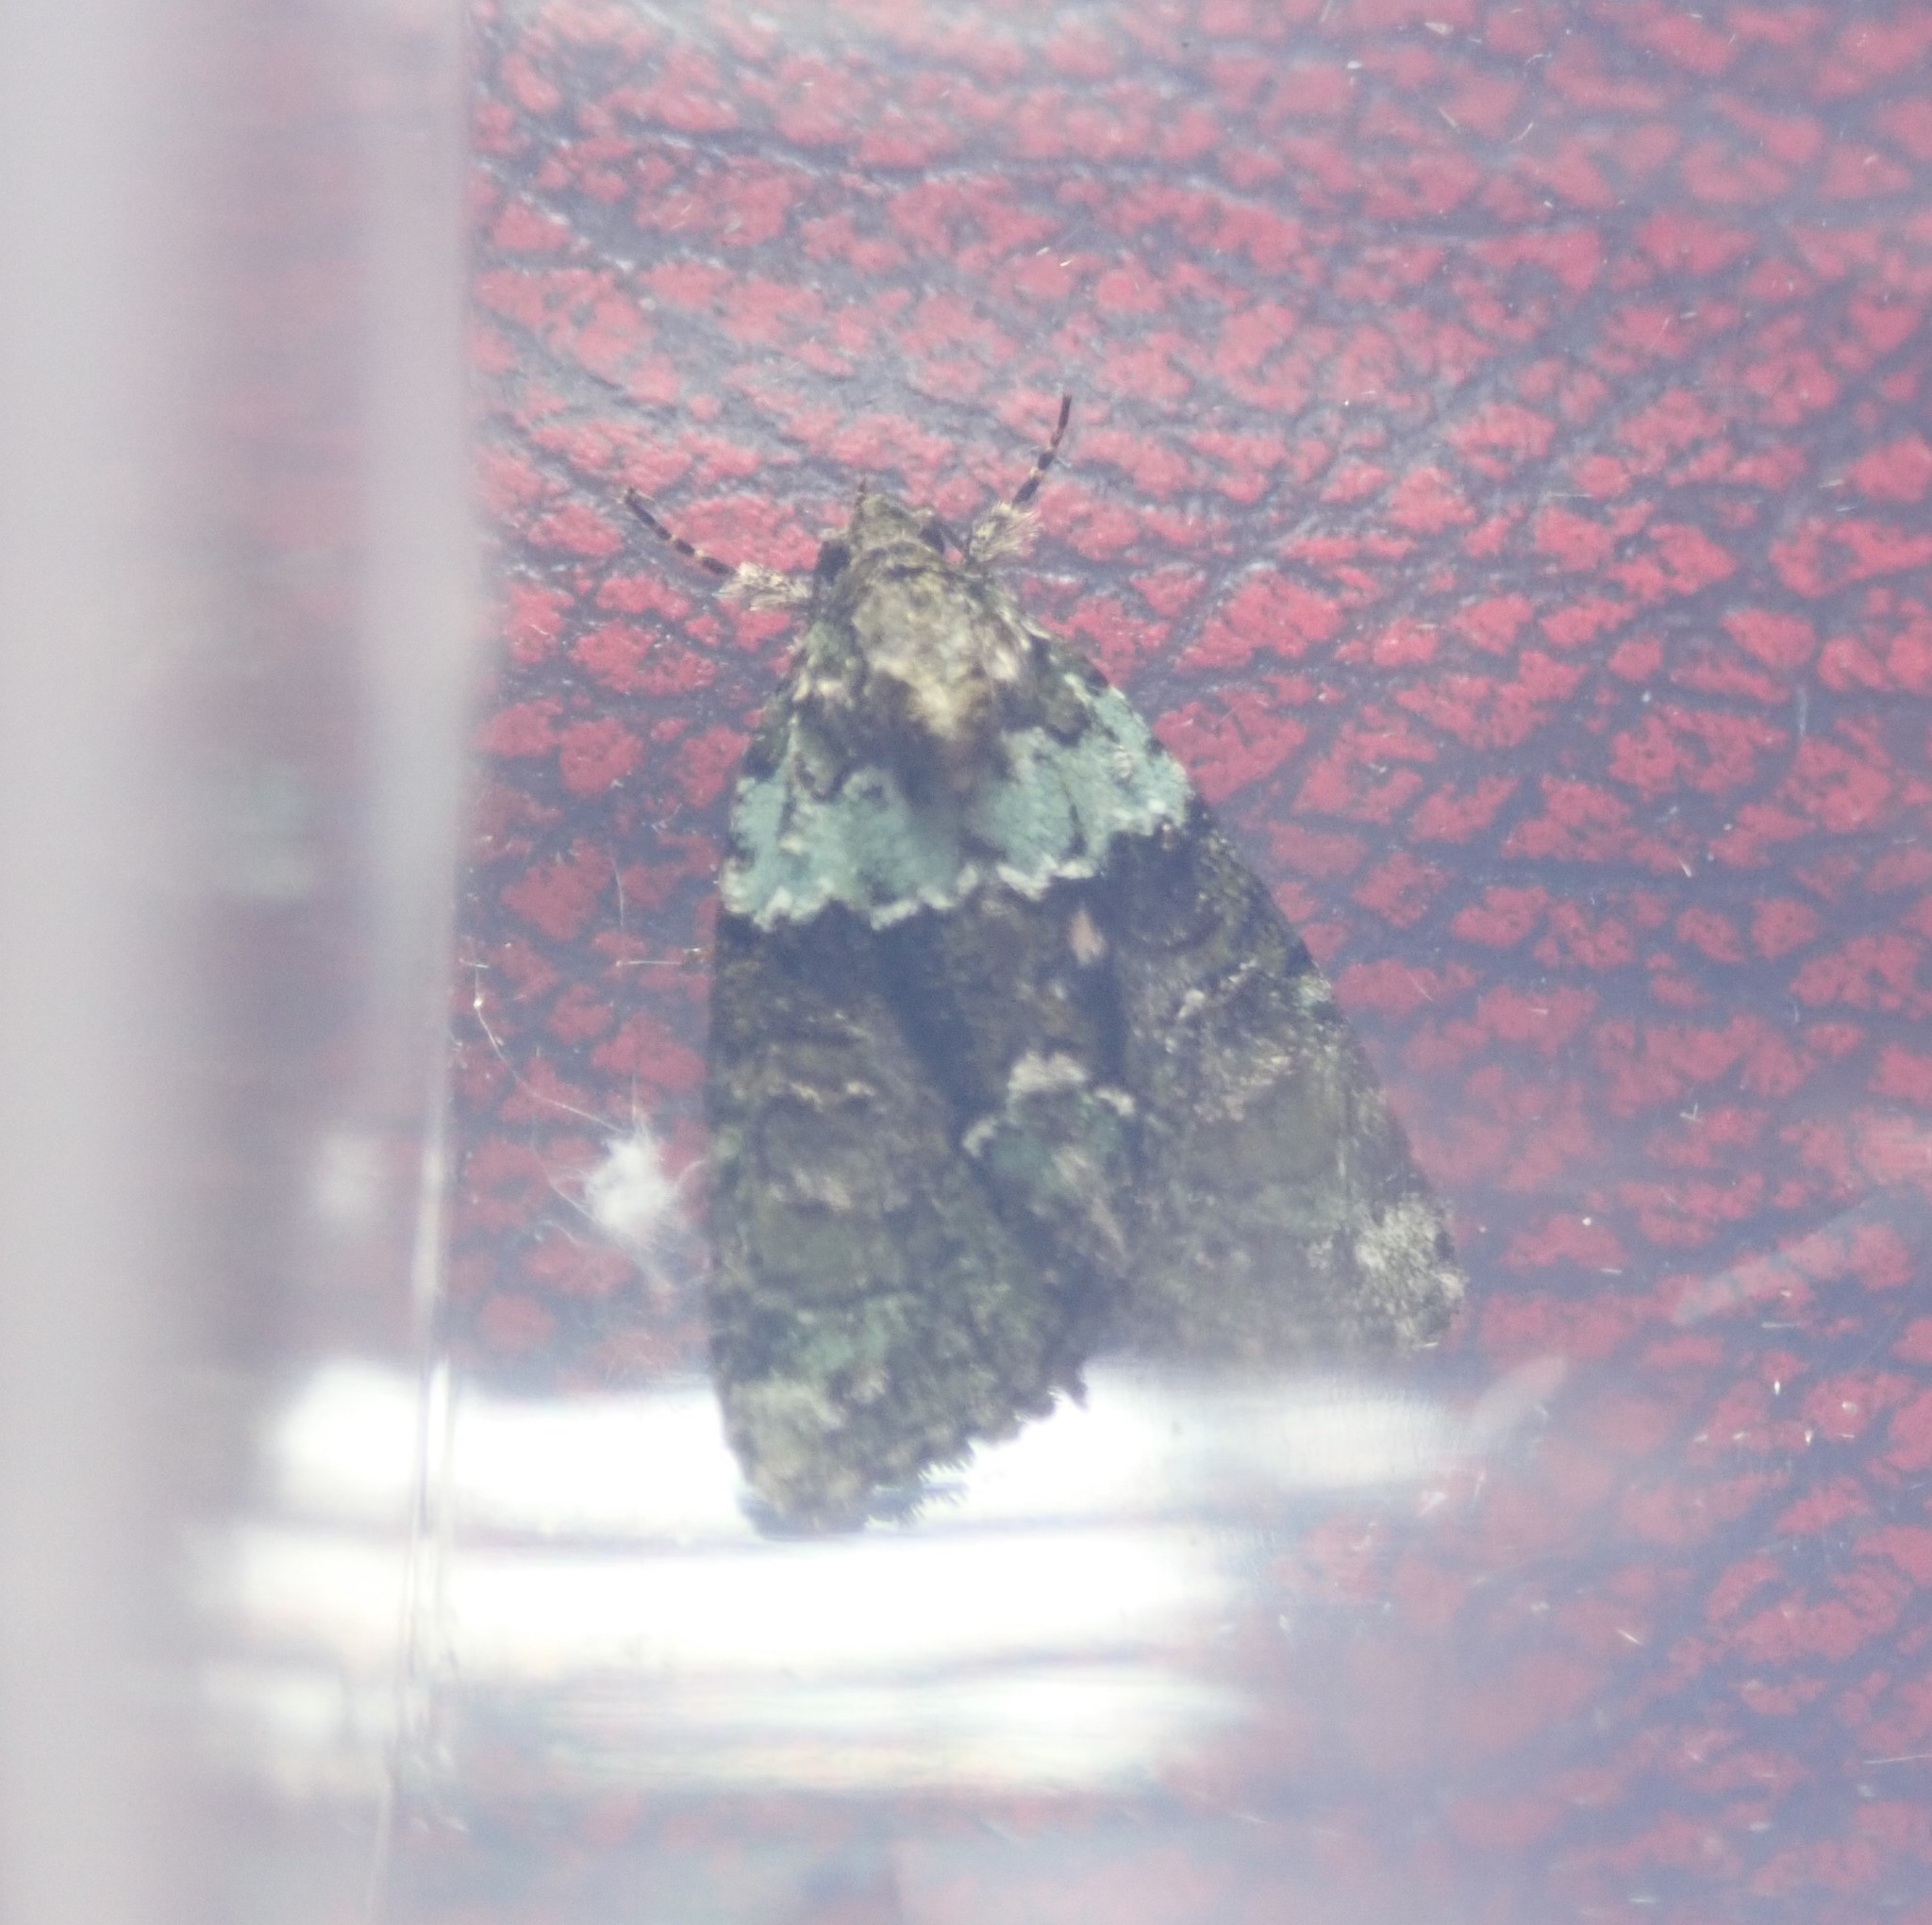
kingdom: Animalia
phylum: Arthropoda
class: Insecta
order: Lepidoptera
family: Noctuidae
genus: Cryphia
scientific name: Cryphia algae
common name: Tree-lichen beauty
